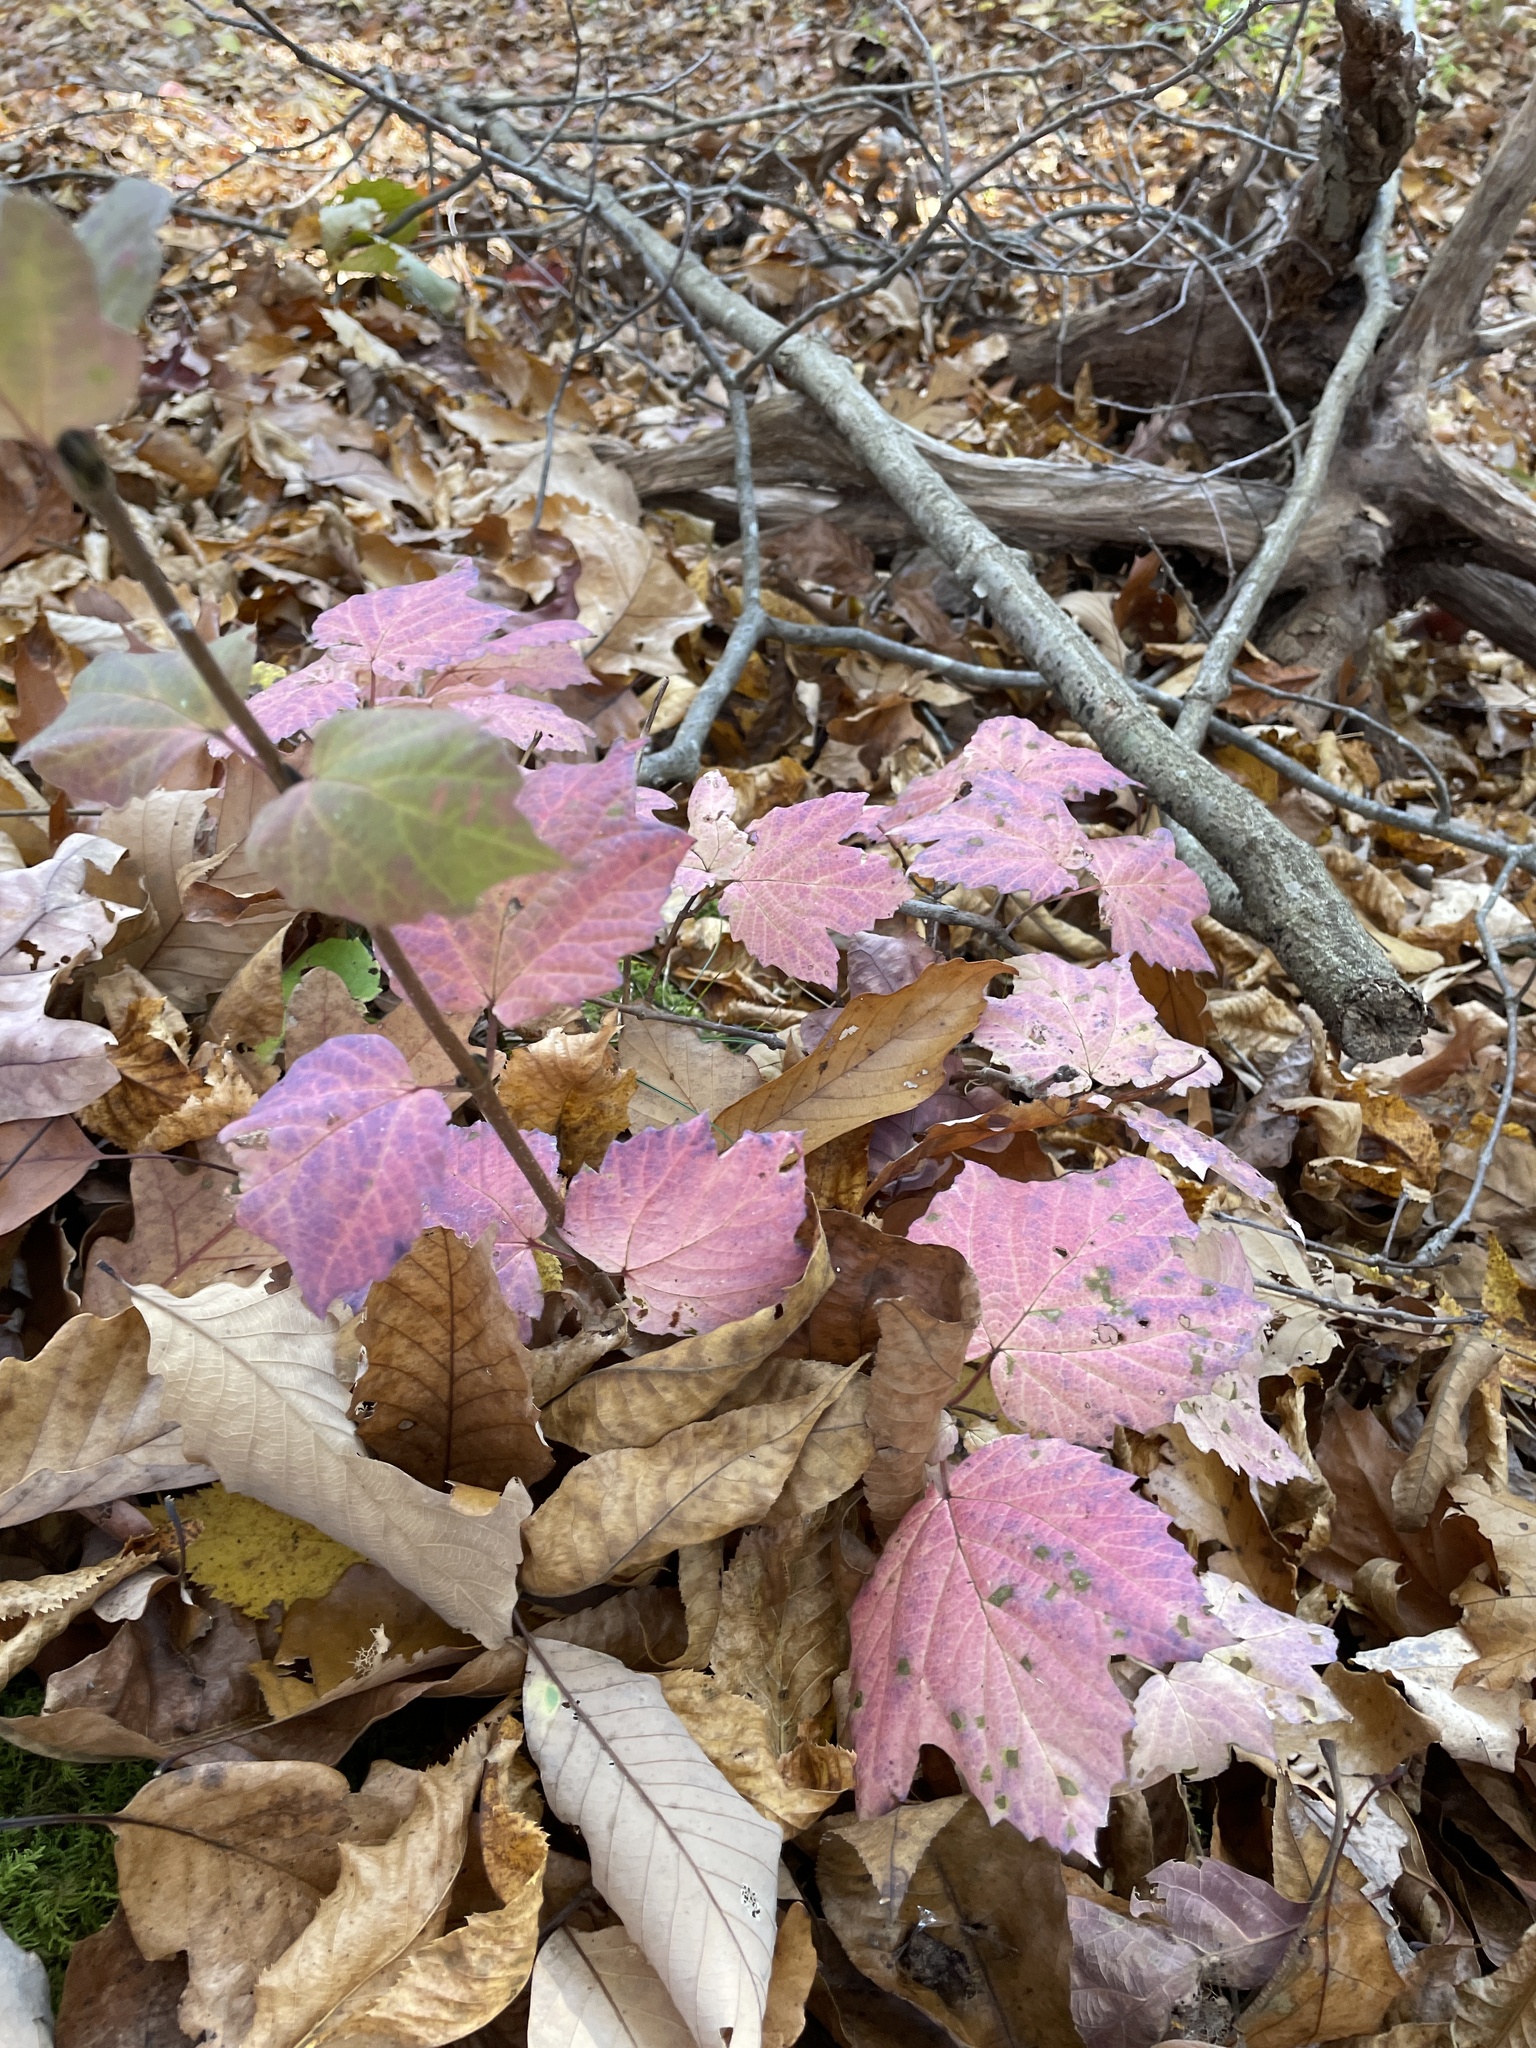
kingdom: Plantae
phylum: Tracheophyta
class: Magnoliopsida
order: Dipsacales
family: Viburnaceae
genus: Viburnum
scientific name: Viburnum acerifolium
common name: Dockmackie
